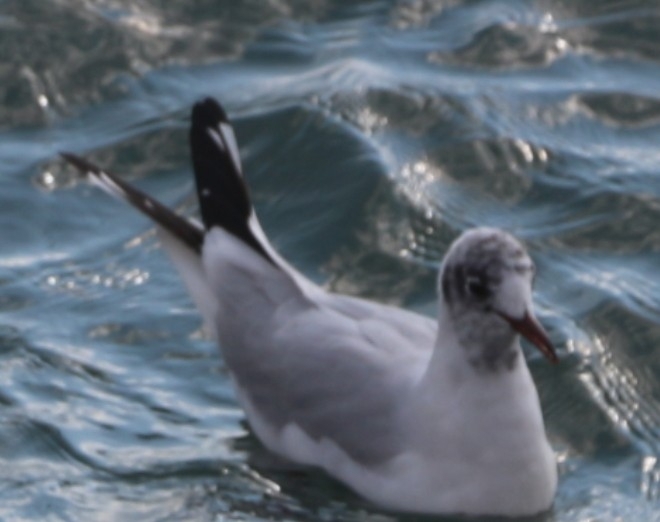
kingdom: Animalia
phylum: Chordata
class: Aves
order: Charadriiformes
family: Laridae
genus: Chroicocephalus
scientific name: Chroicocephalus ridibundus
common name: Black-headed gull
